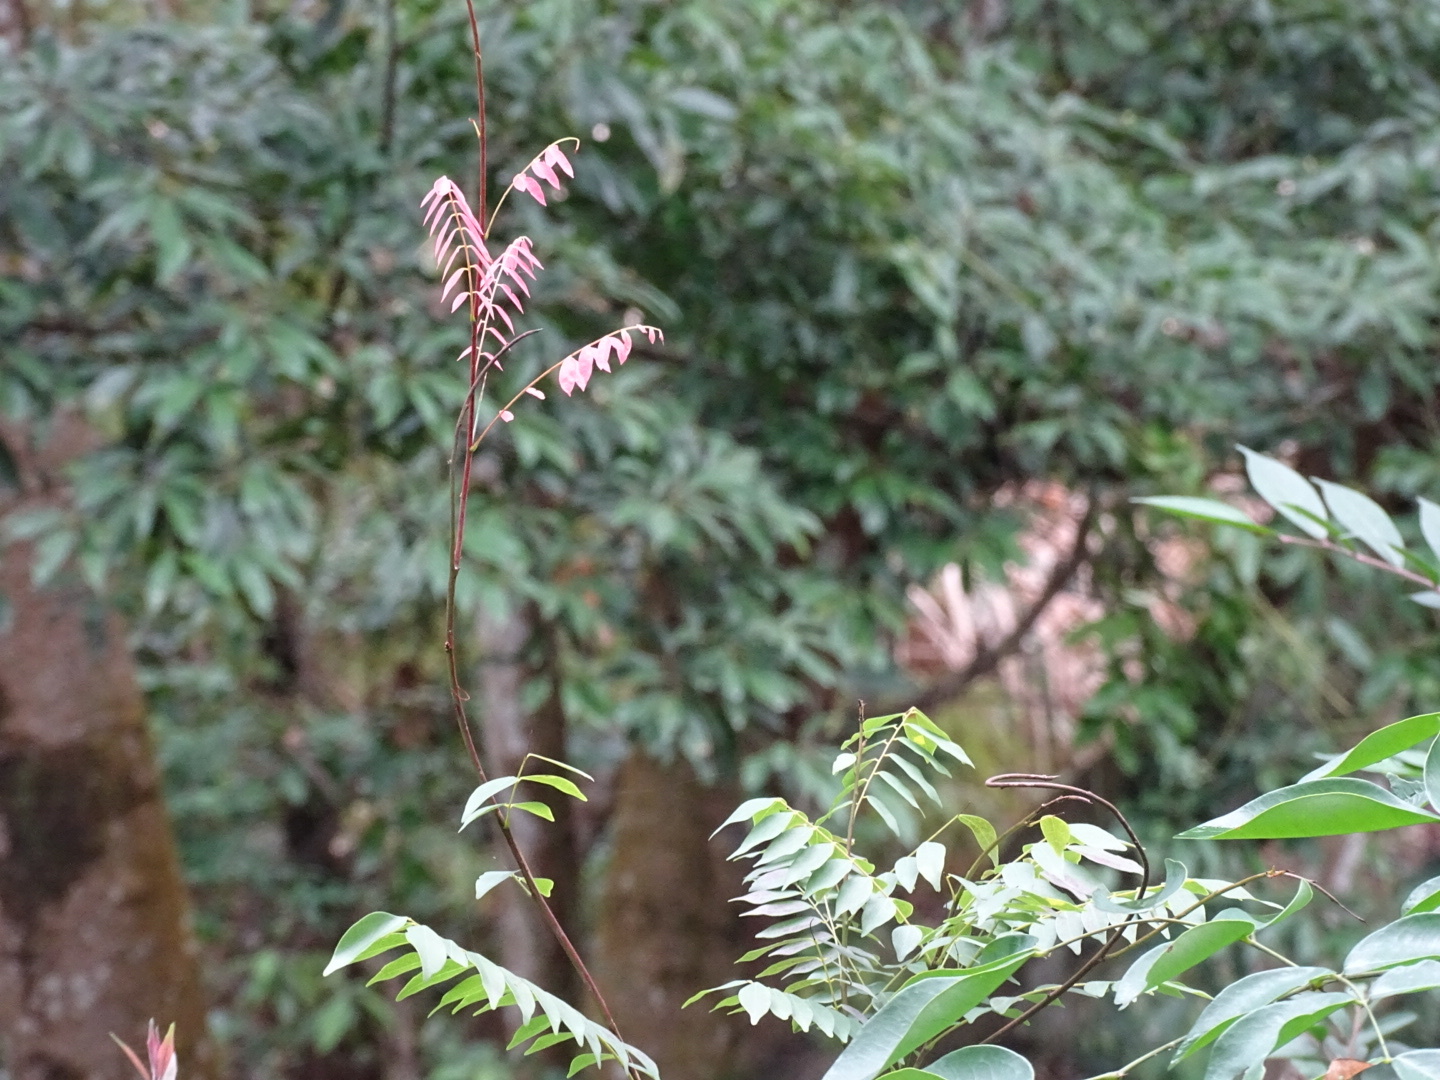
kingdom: Plantae
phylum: Tracheophyta
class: Magnoliopsida
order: Oxalidales
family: Connaraceae
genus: Rourea
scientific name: Rourea microphylla
